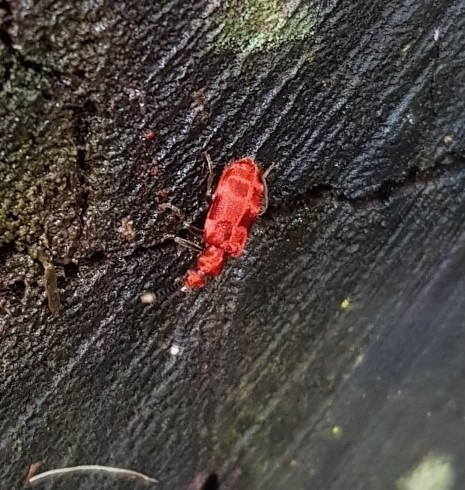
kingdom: Animalia
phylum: Arthropoda
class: Insecta
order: Coleoptera
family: Anthicidae
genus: Lemodes
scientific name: Lemodes
